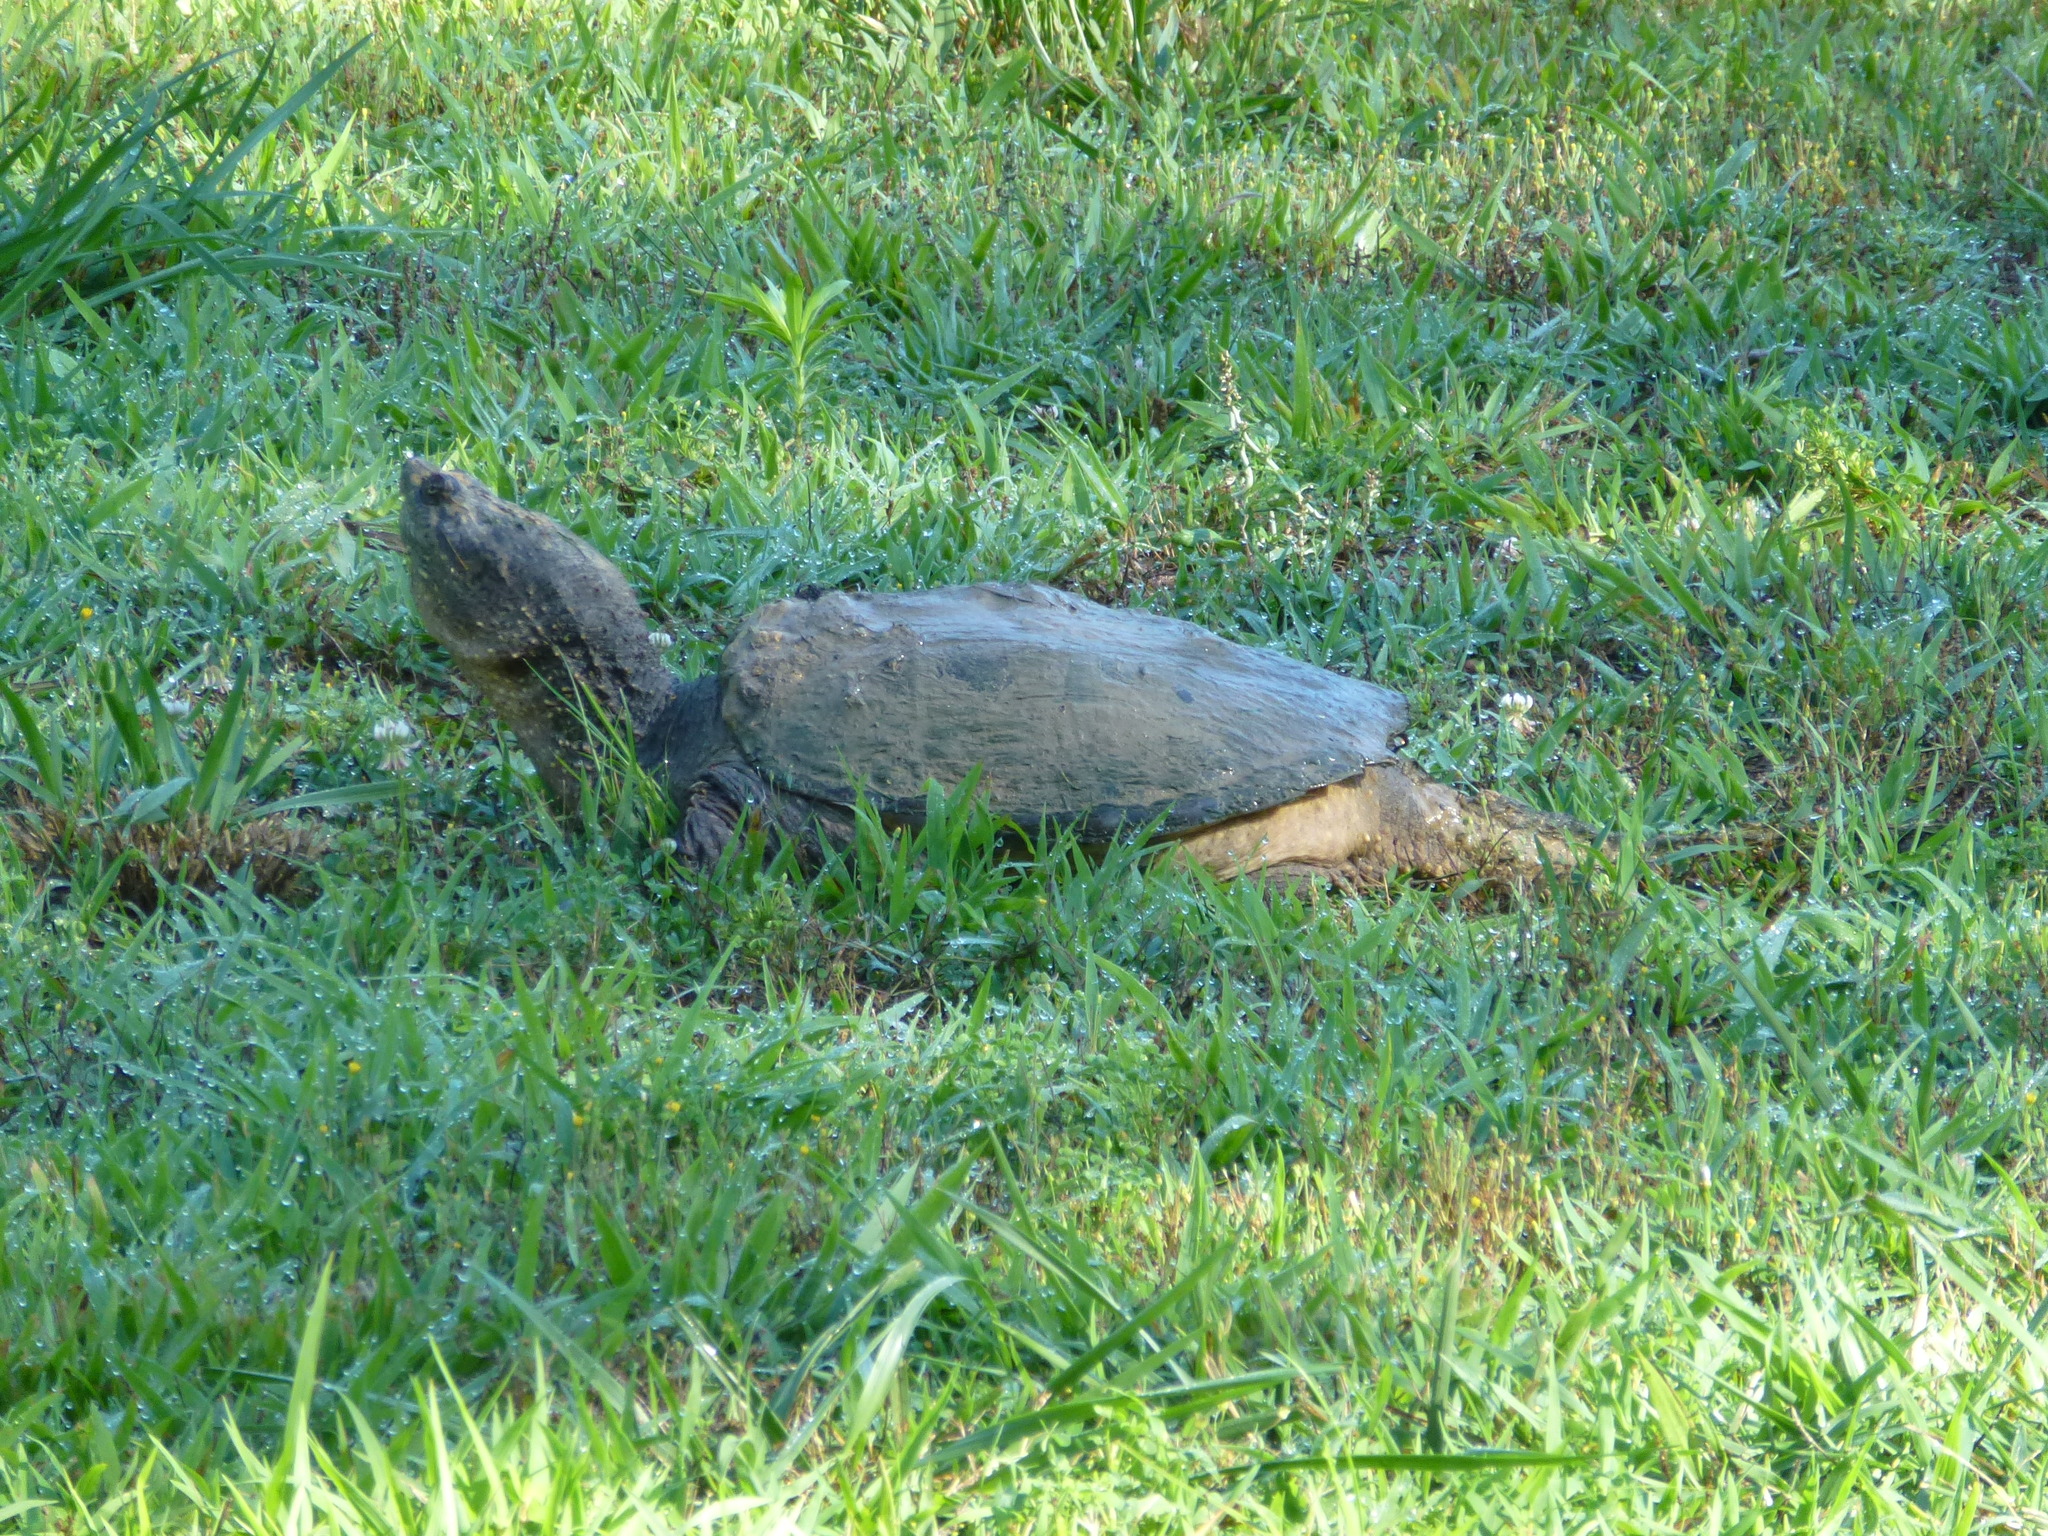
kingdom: Animalia
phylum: Chordata
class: Testudines
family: Chelydridae
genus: Chelydra
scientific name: Chelydra serpentina
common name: Common snapping turtle
